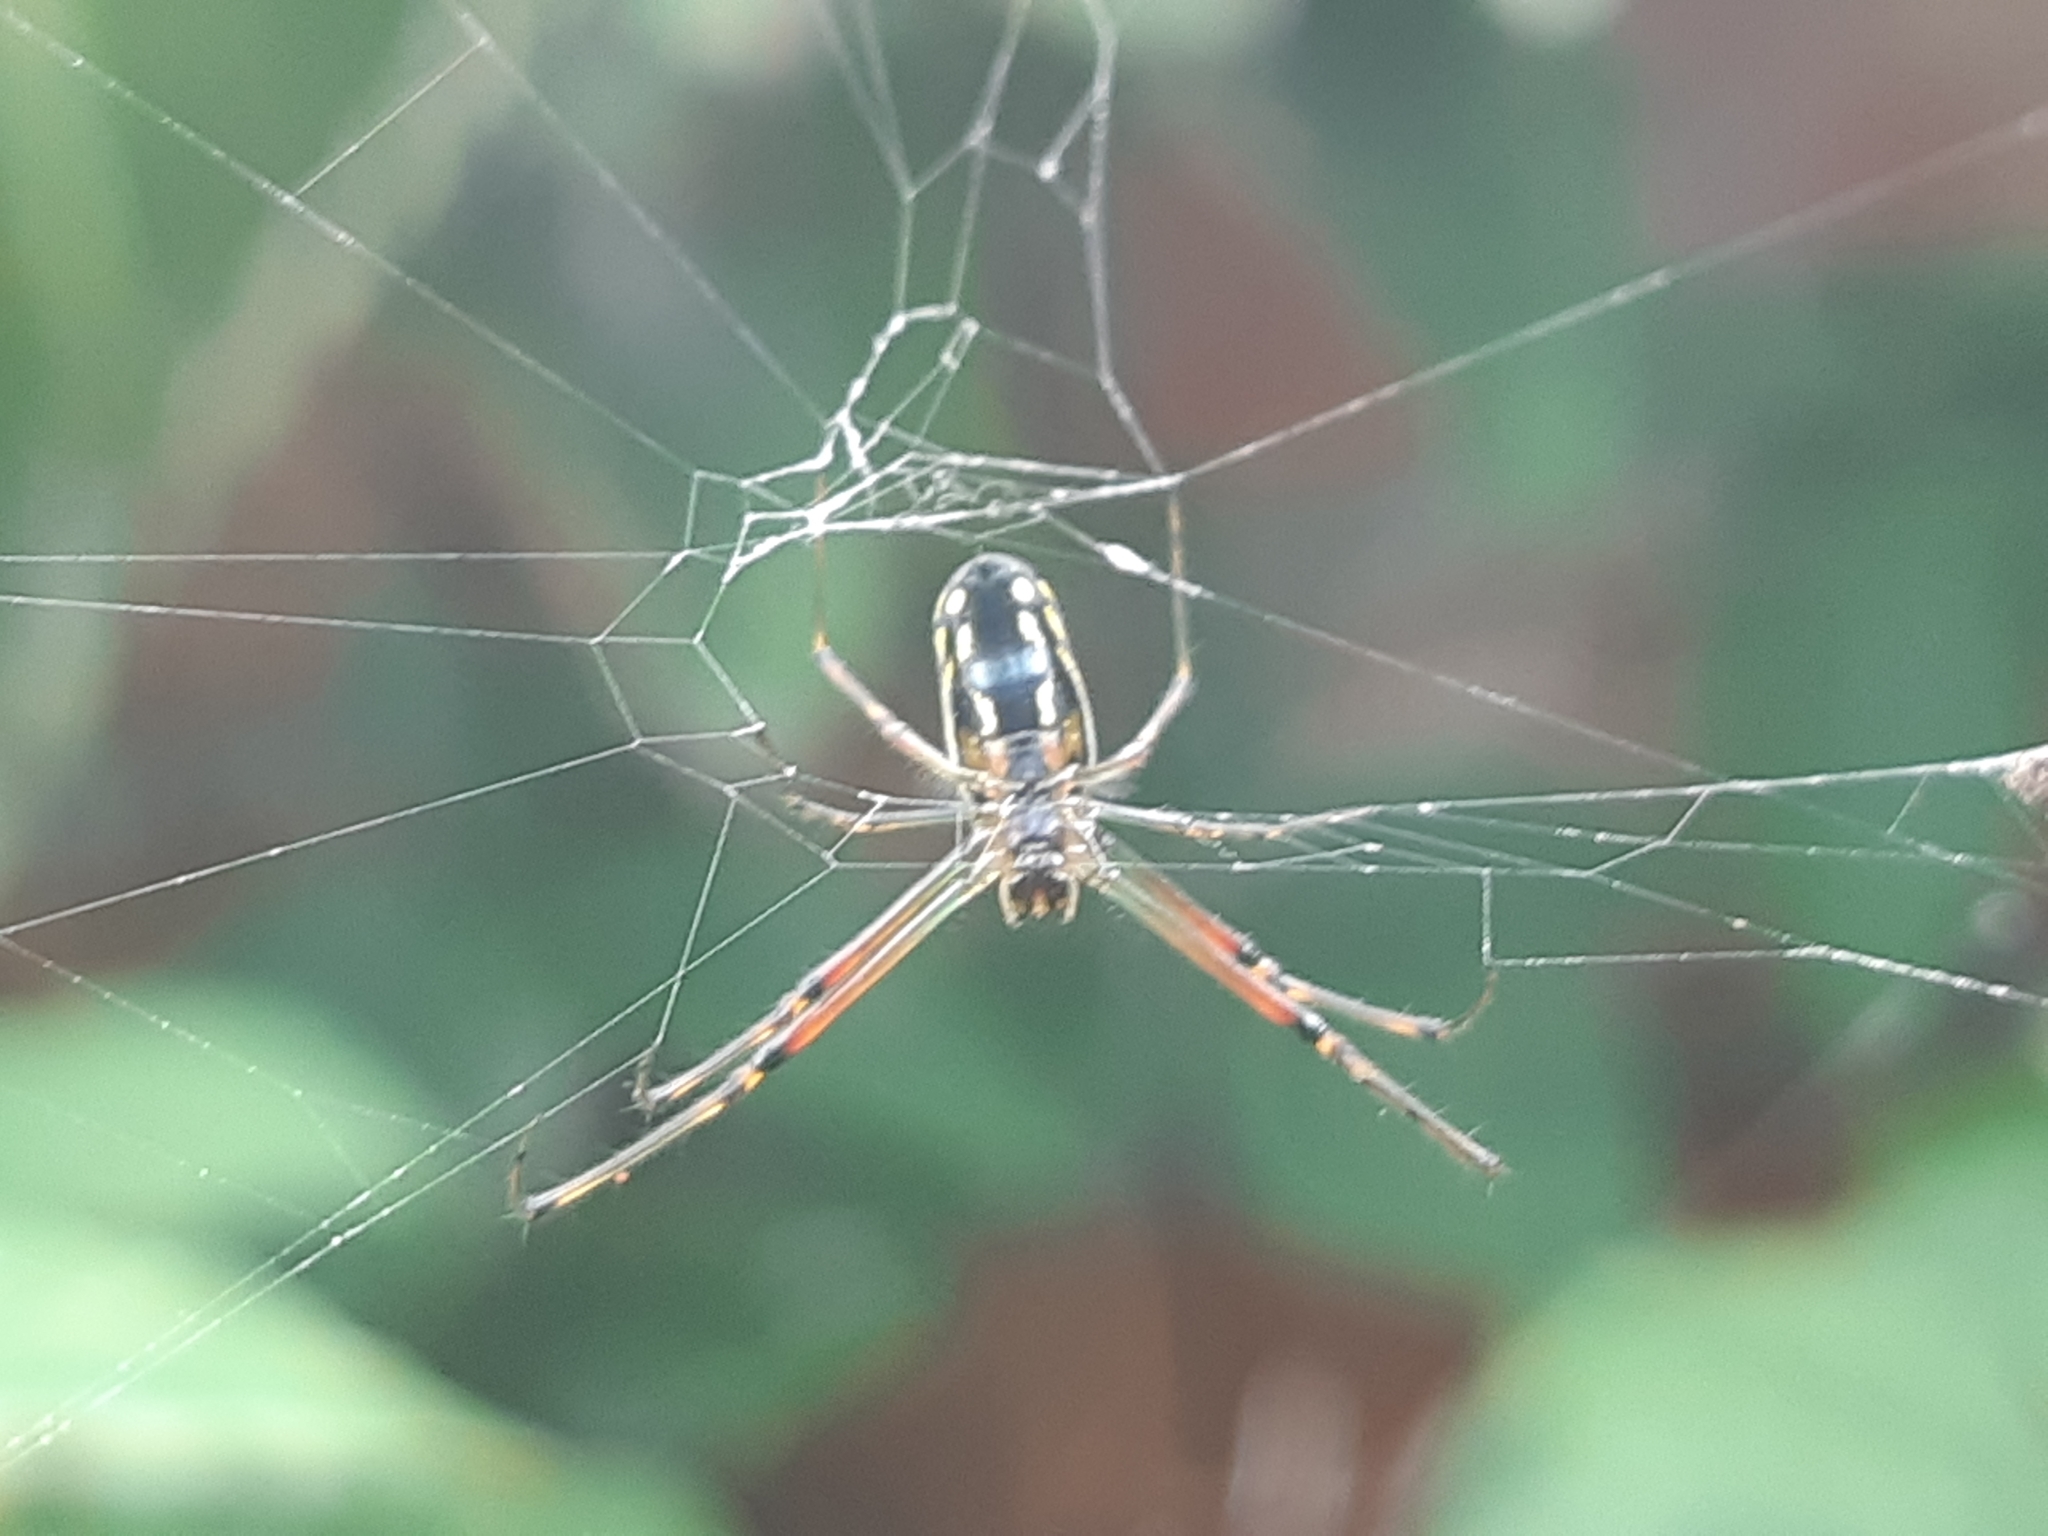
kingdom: Animalia
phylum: Arthropoda
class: Arachnida
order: Araneae
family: Tetragnathidae
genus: Leucauge
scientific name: Leucauge argyra
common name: Longjawed orb weavers
